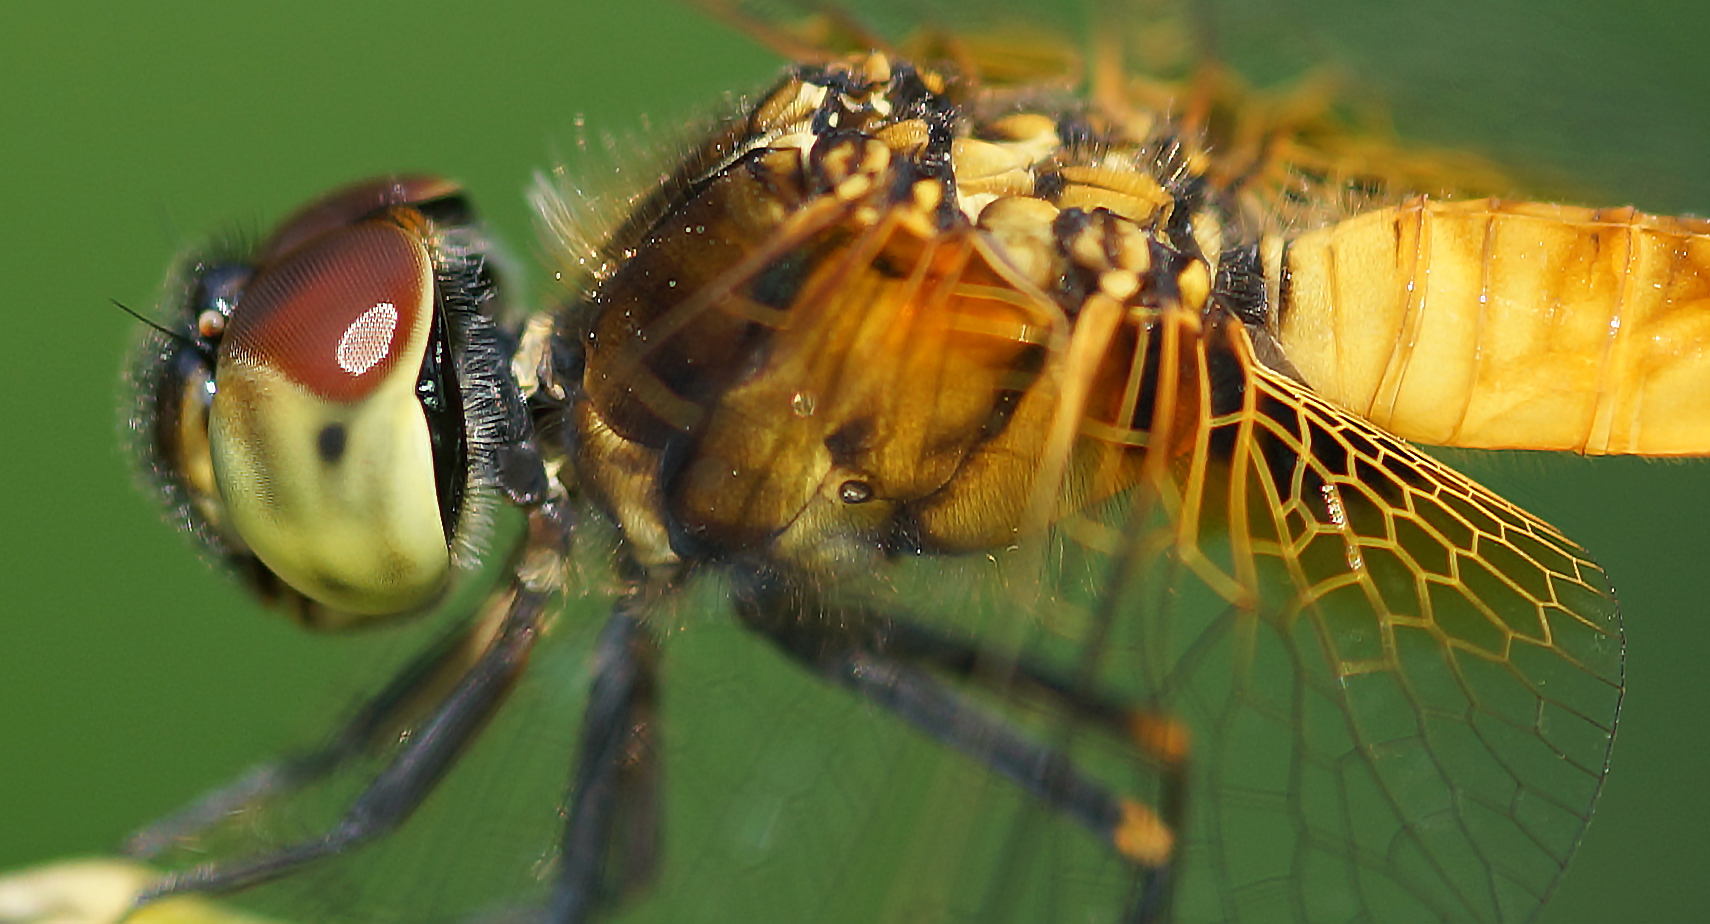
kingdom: Animalia
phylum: Arthropoda
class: Insecta
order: Odonata
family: Libellulidae
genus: Aethriamanta
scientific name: Aethriamanta brevipennis
